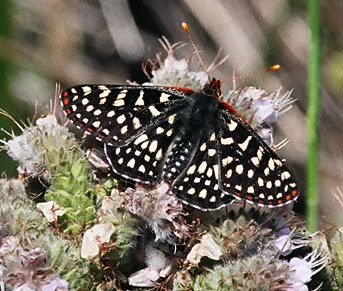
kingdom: Animalia
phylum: Arthropoda
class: Insecta
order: Lepidoptera
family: Nymphalidae
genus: Occidryas
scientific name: Occidryas chalcedona
